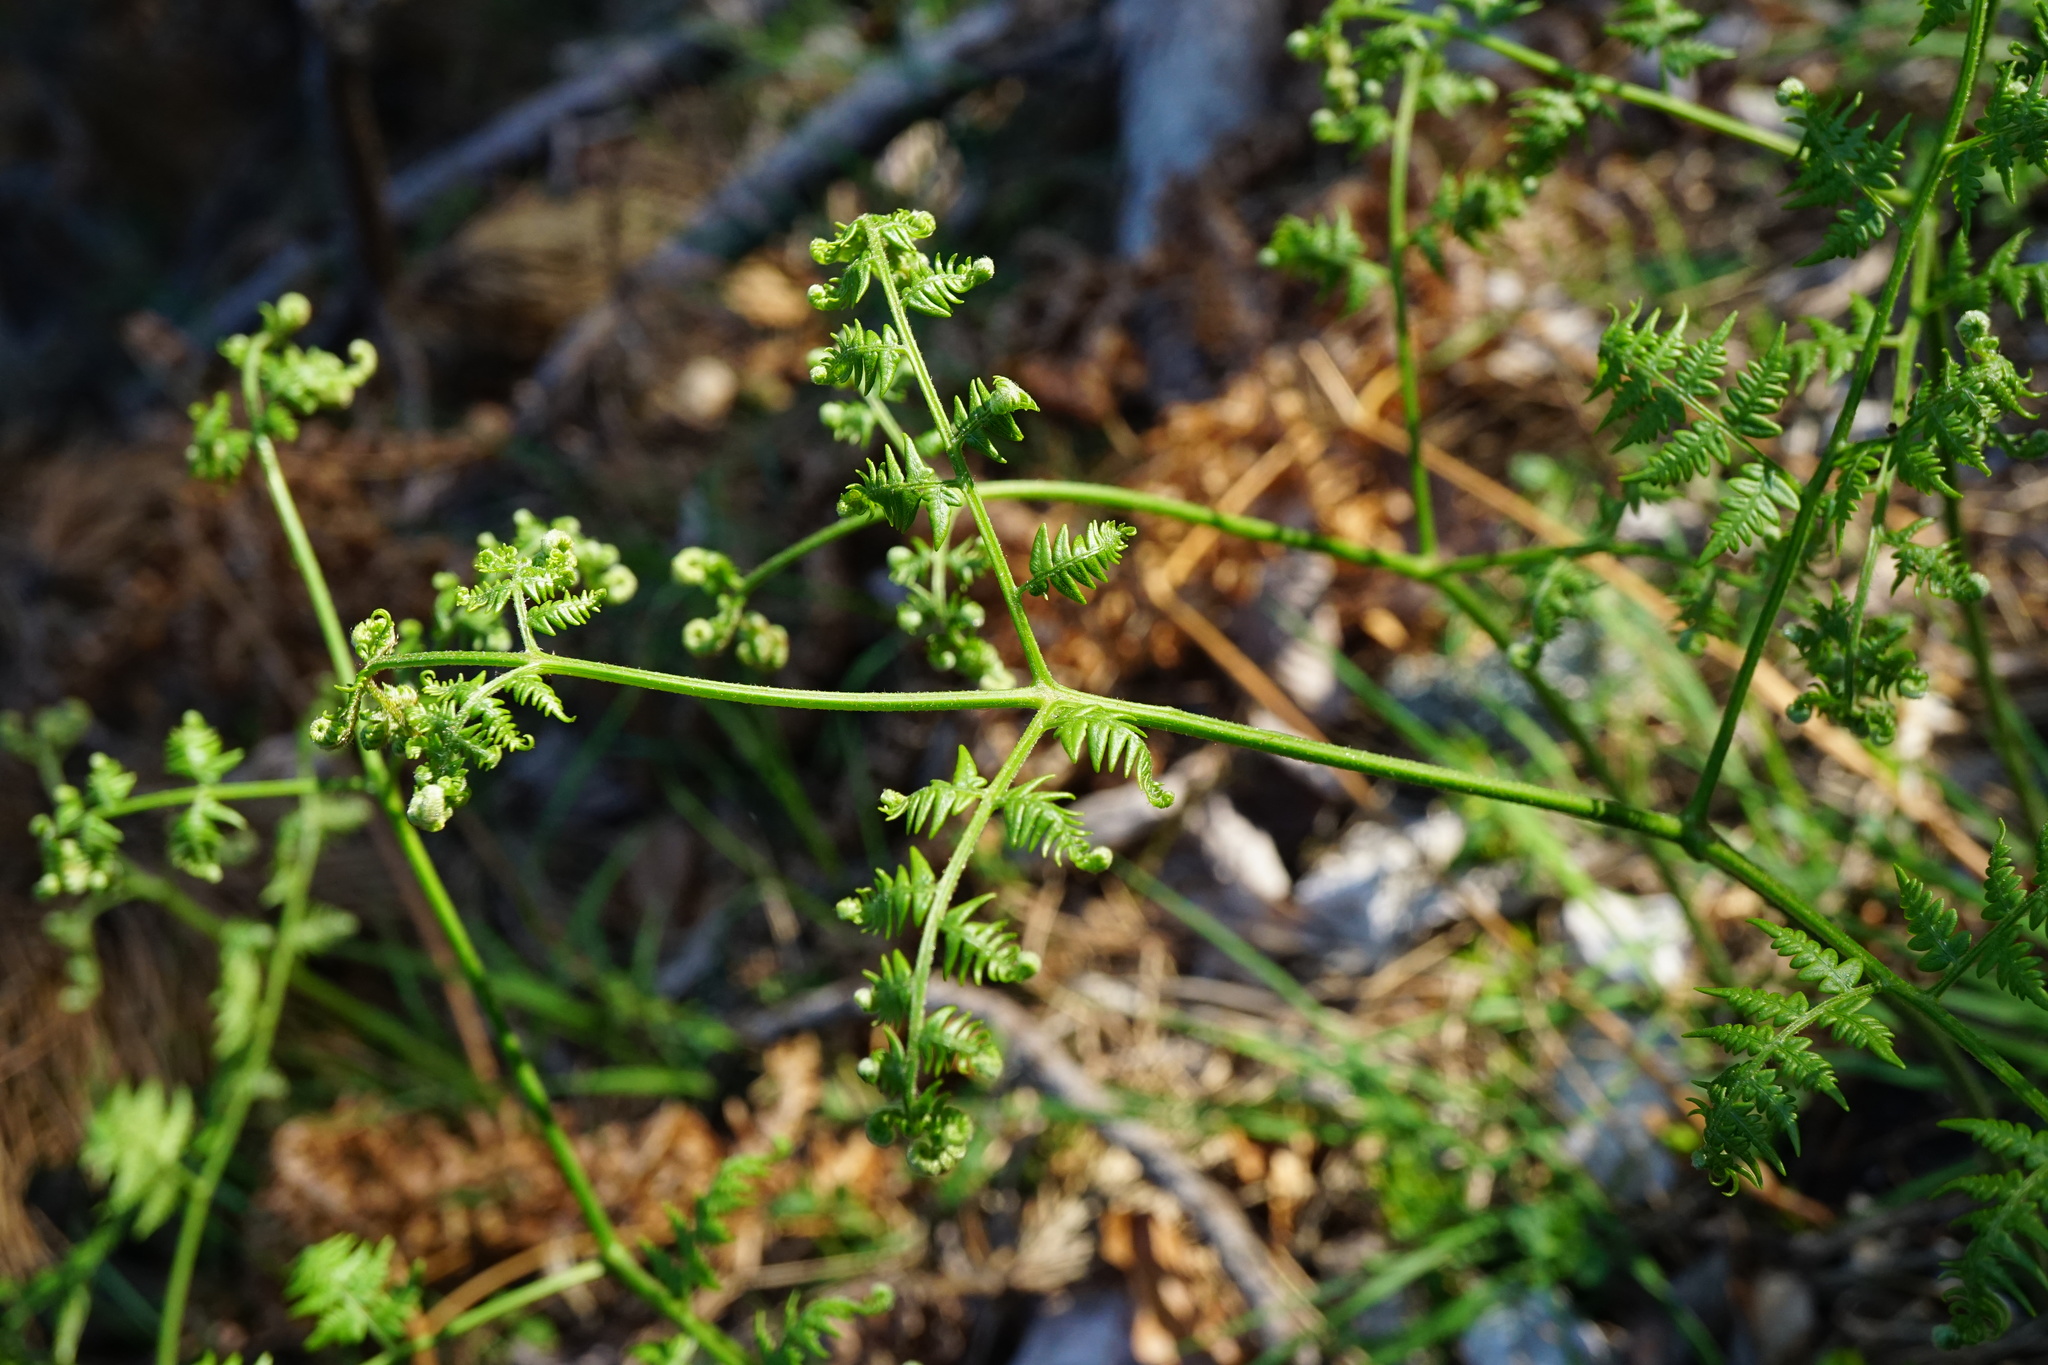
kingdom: Plantae
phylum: Tracheophyta
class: Polypodiopsida
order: Polypodiales
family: Dennstaedtiaceae
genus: Pteridium
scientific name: Pteridium aquilinum
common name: Bracken
